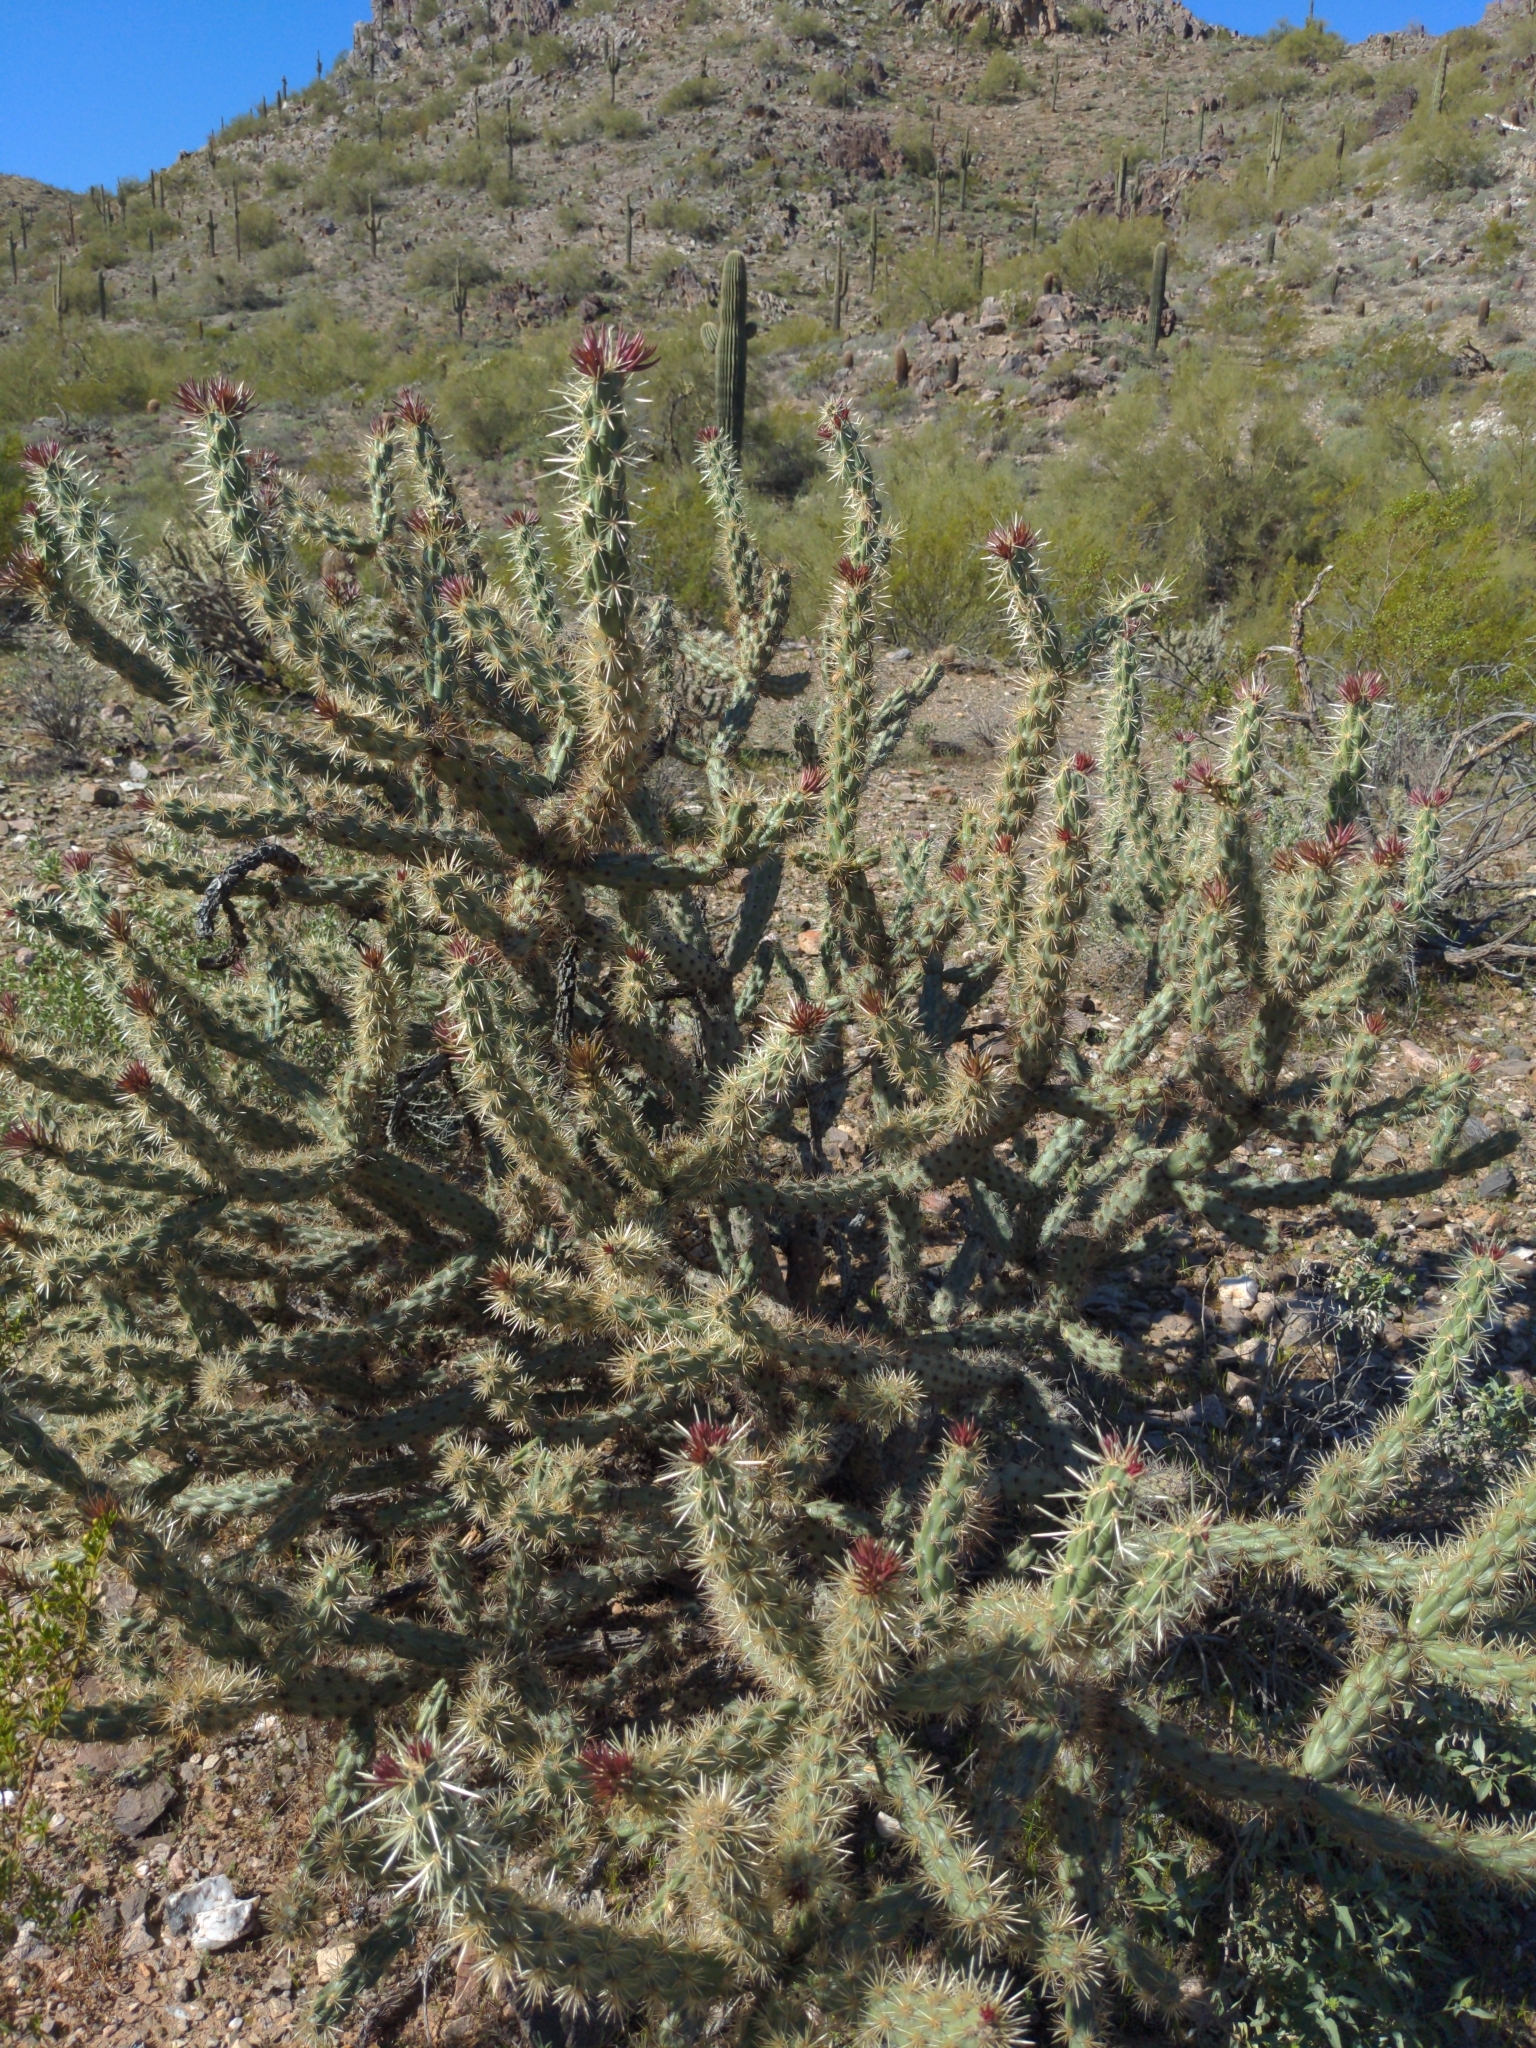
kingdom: Plantae
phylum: Tracheophyta
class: Magnoliopsida
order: Caryophyllales
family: Cactaceae
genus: Cylindropuntia
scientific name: Cylindropuntia acanthocarpa
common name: Buckhorn cholla
